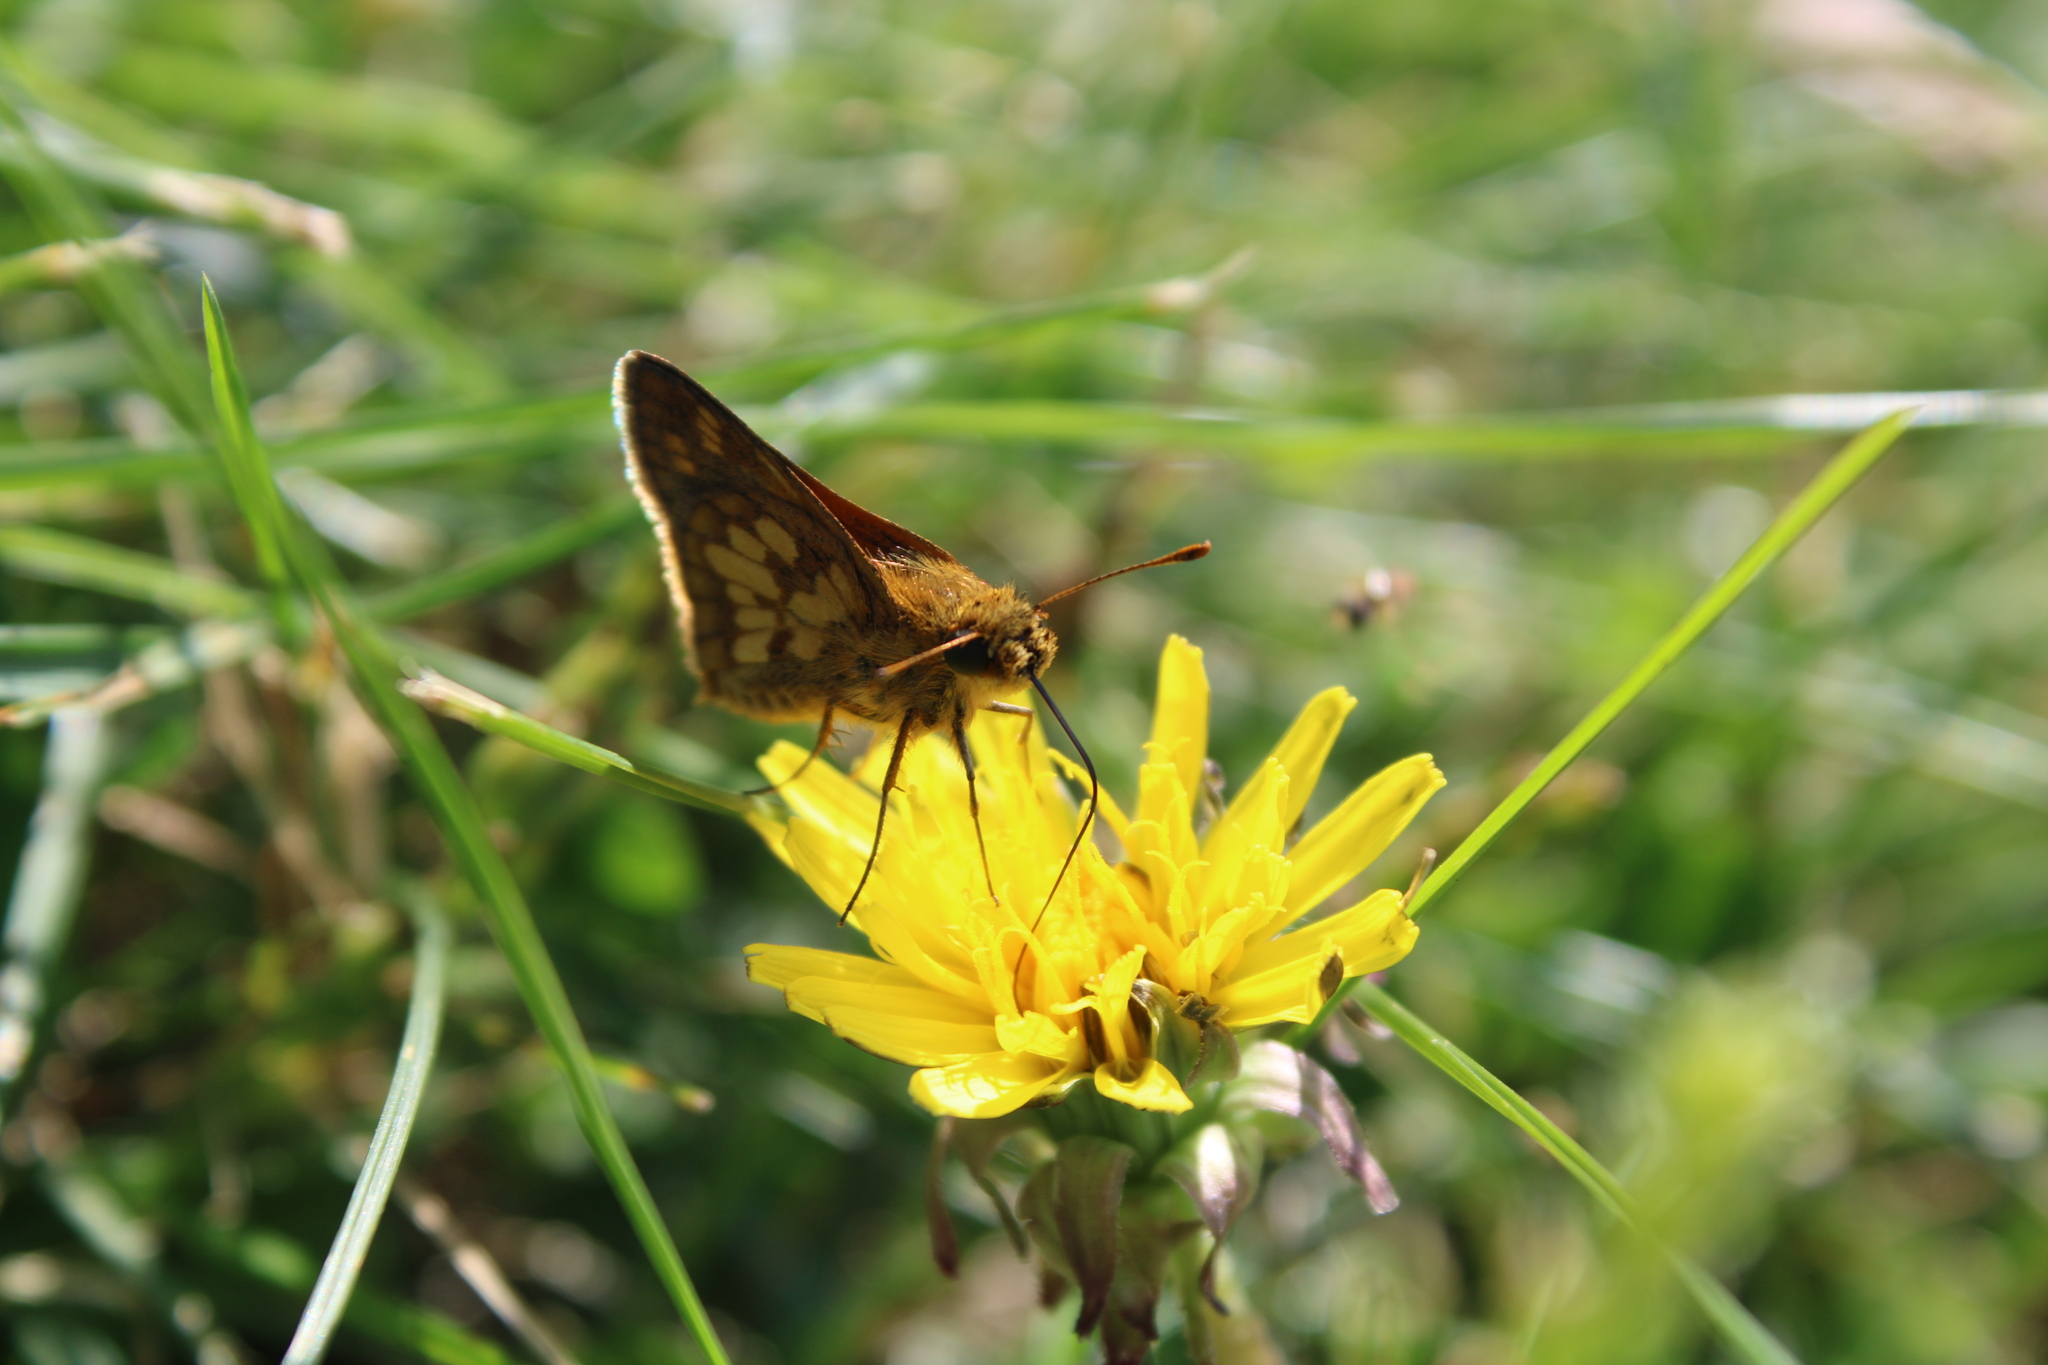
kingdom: Animalia
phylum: Arthropoda
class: Insecta
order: Lepidoptera
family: Hesperiidae
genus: Polites
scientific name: Polites coras
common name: Peck's skipper
